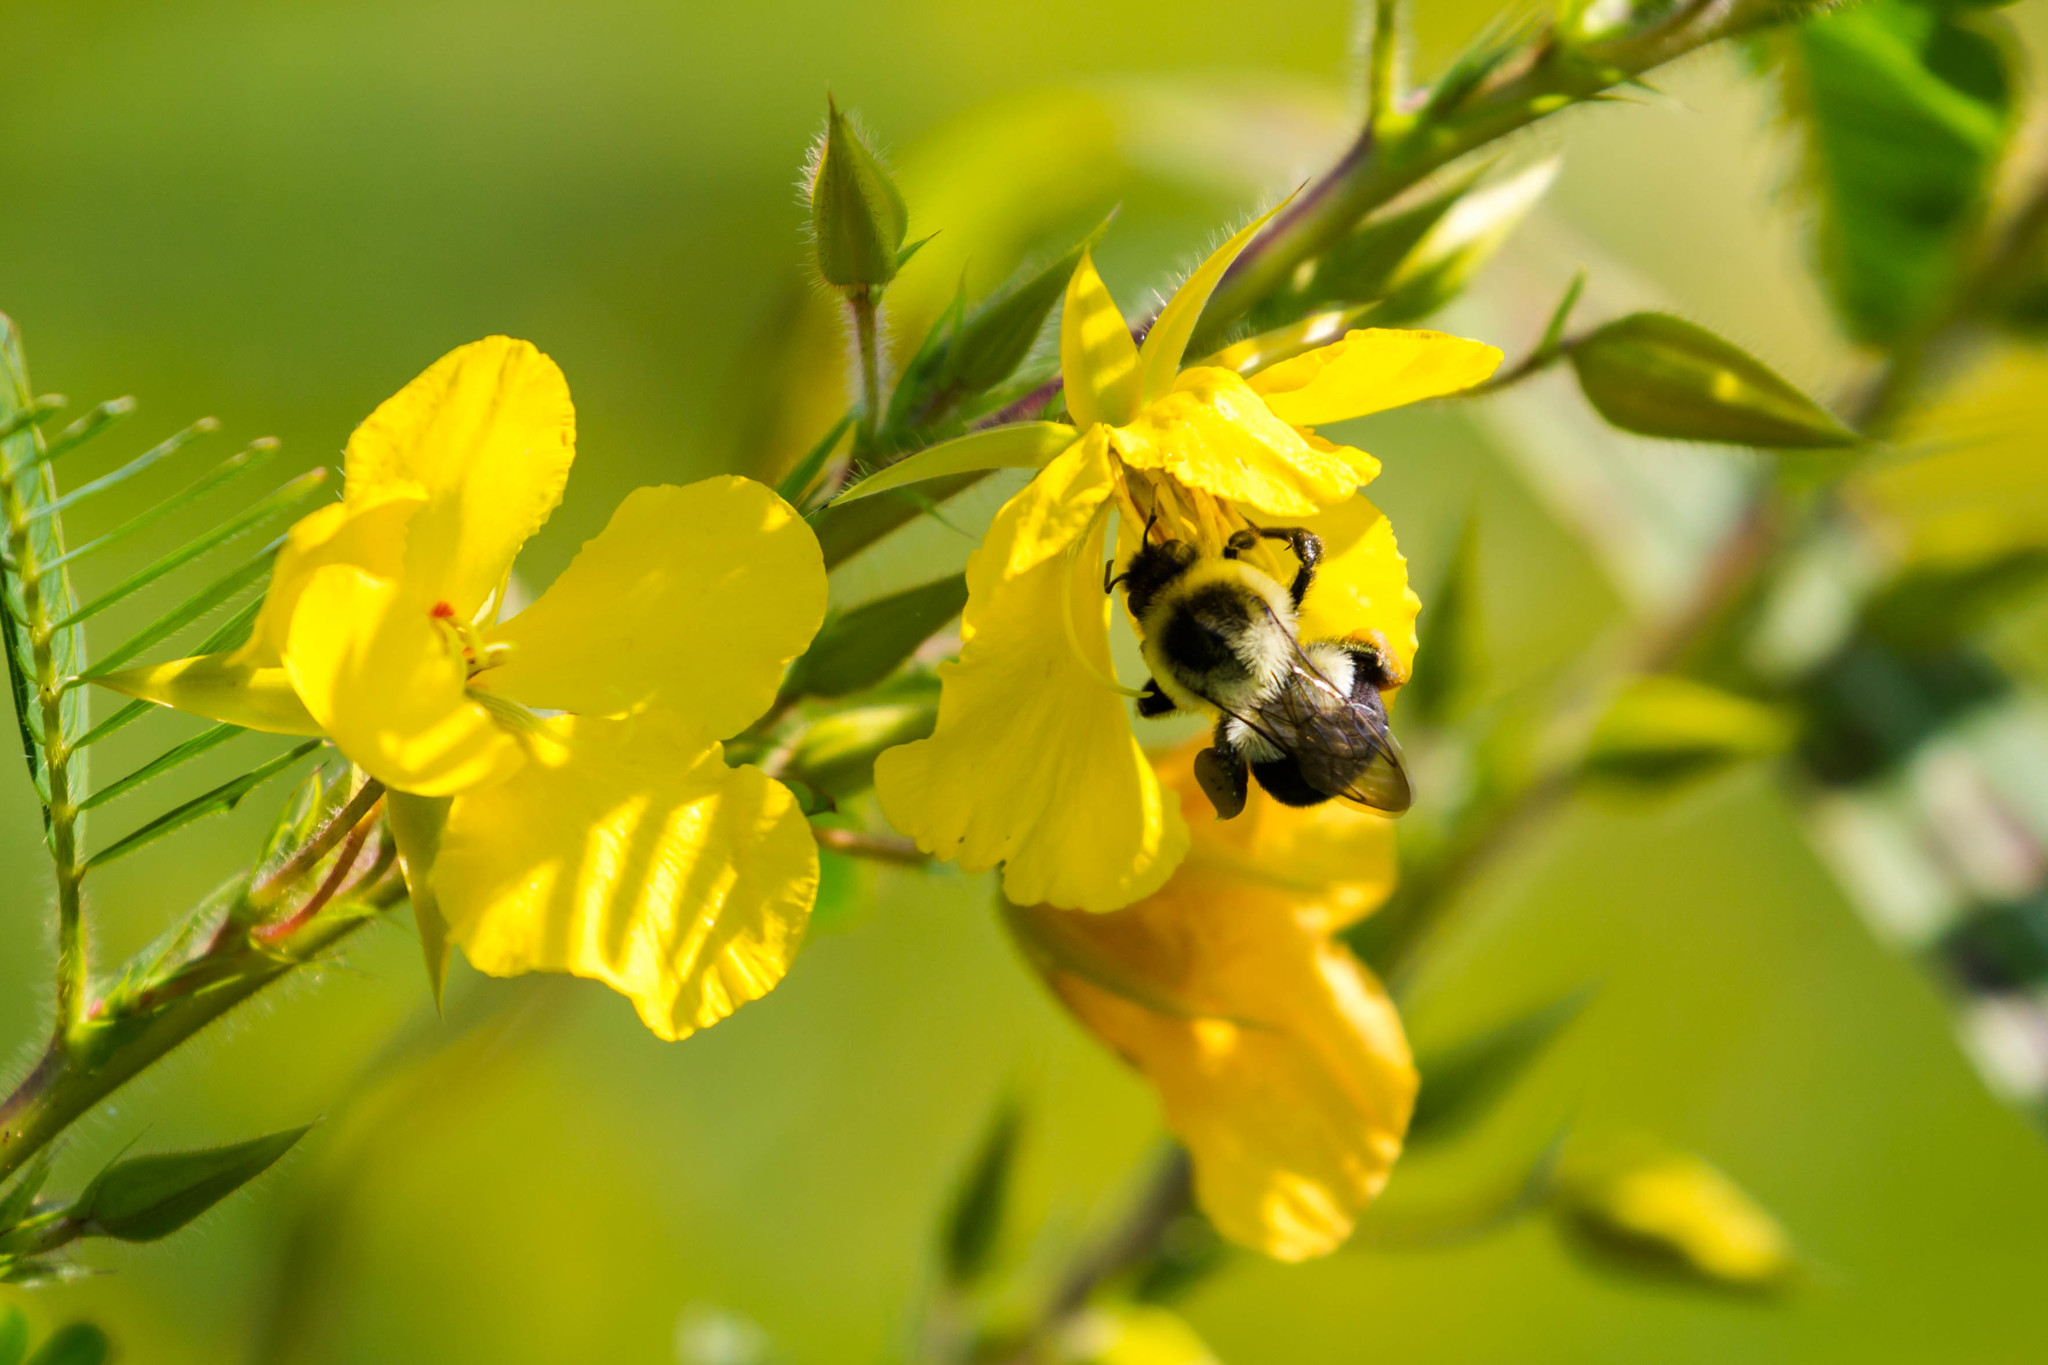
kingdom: Animalia
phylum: Arthropoda
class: Insecta
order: Hymenoptera
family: Apidae
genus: Bombus
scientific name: Bombus impatiens
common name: Common eastern bumble bee
